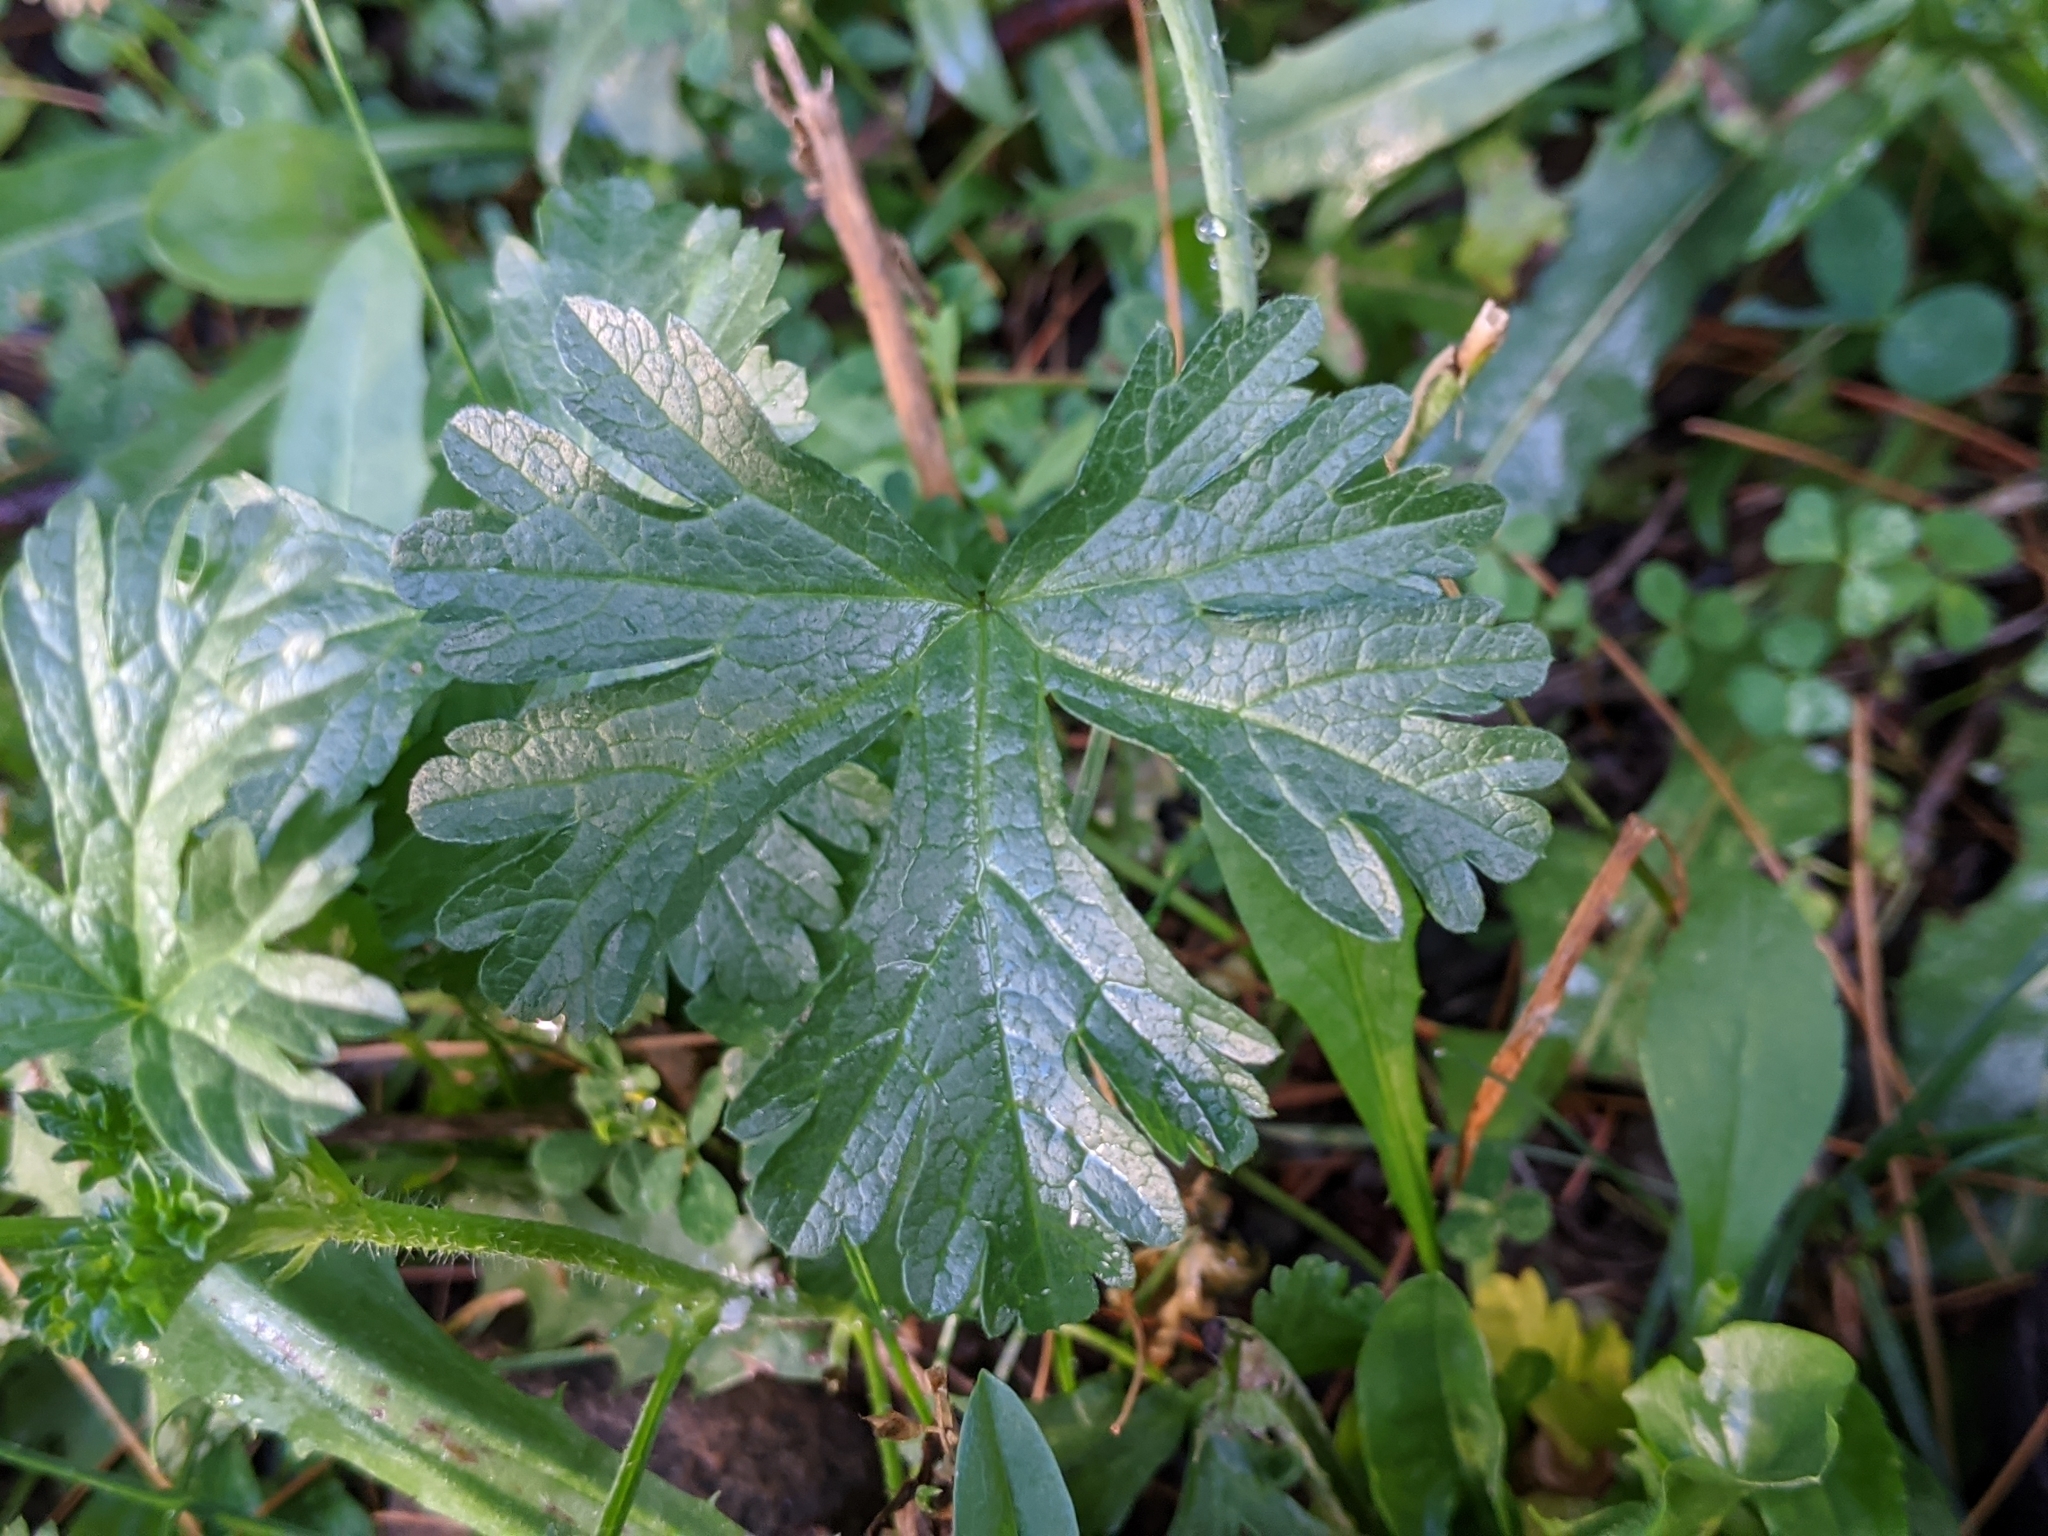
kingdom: Plantae
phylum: Tracheophyta
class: Magnoliopsida
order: Malvales
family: Malvaceae
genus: Malva
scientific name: Malva moschata
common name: Musk mallow
